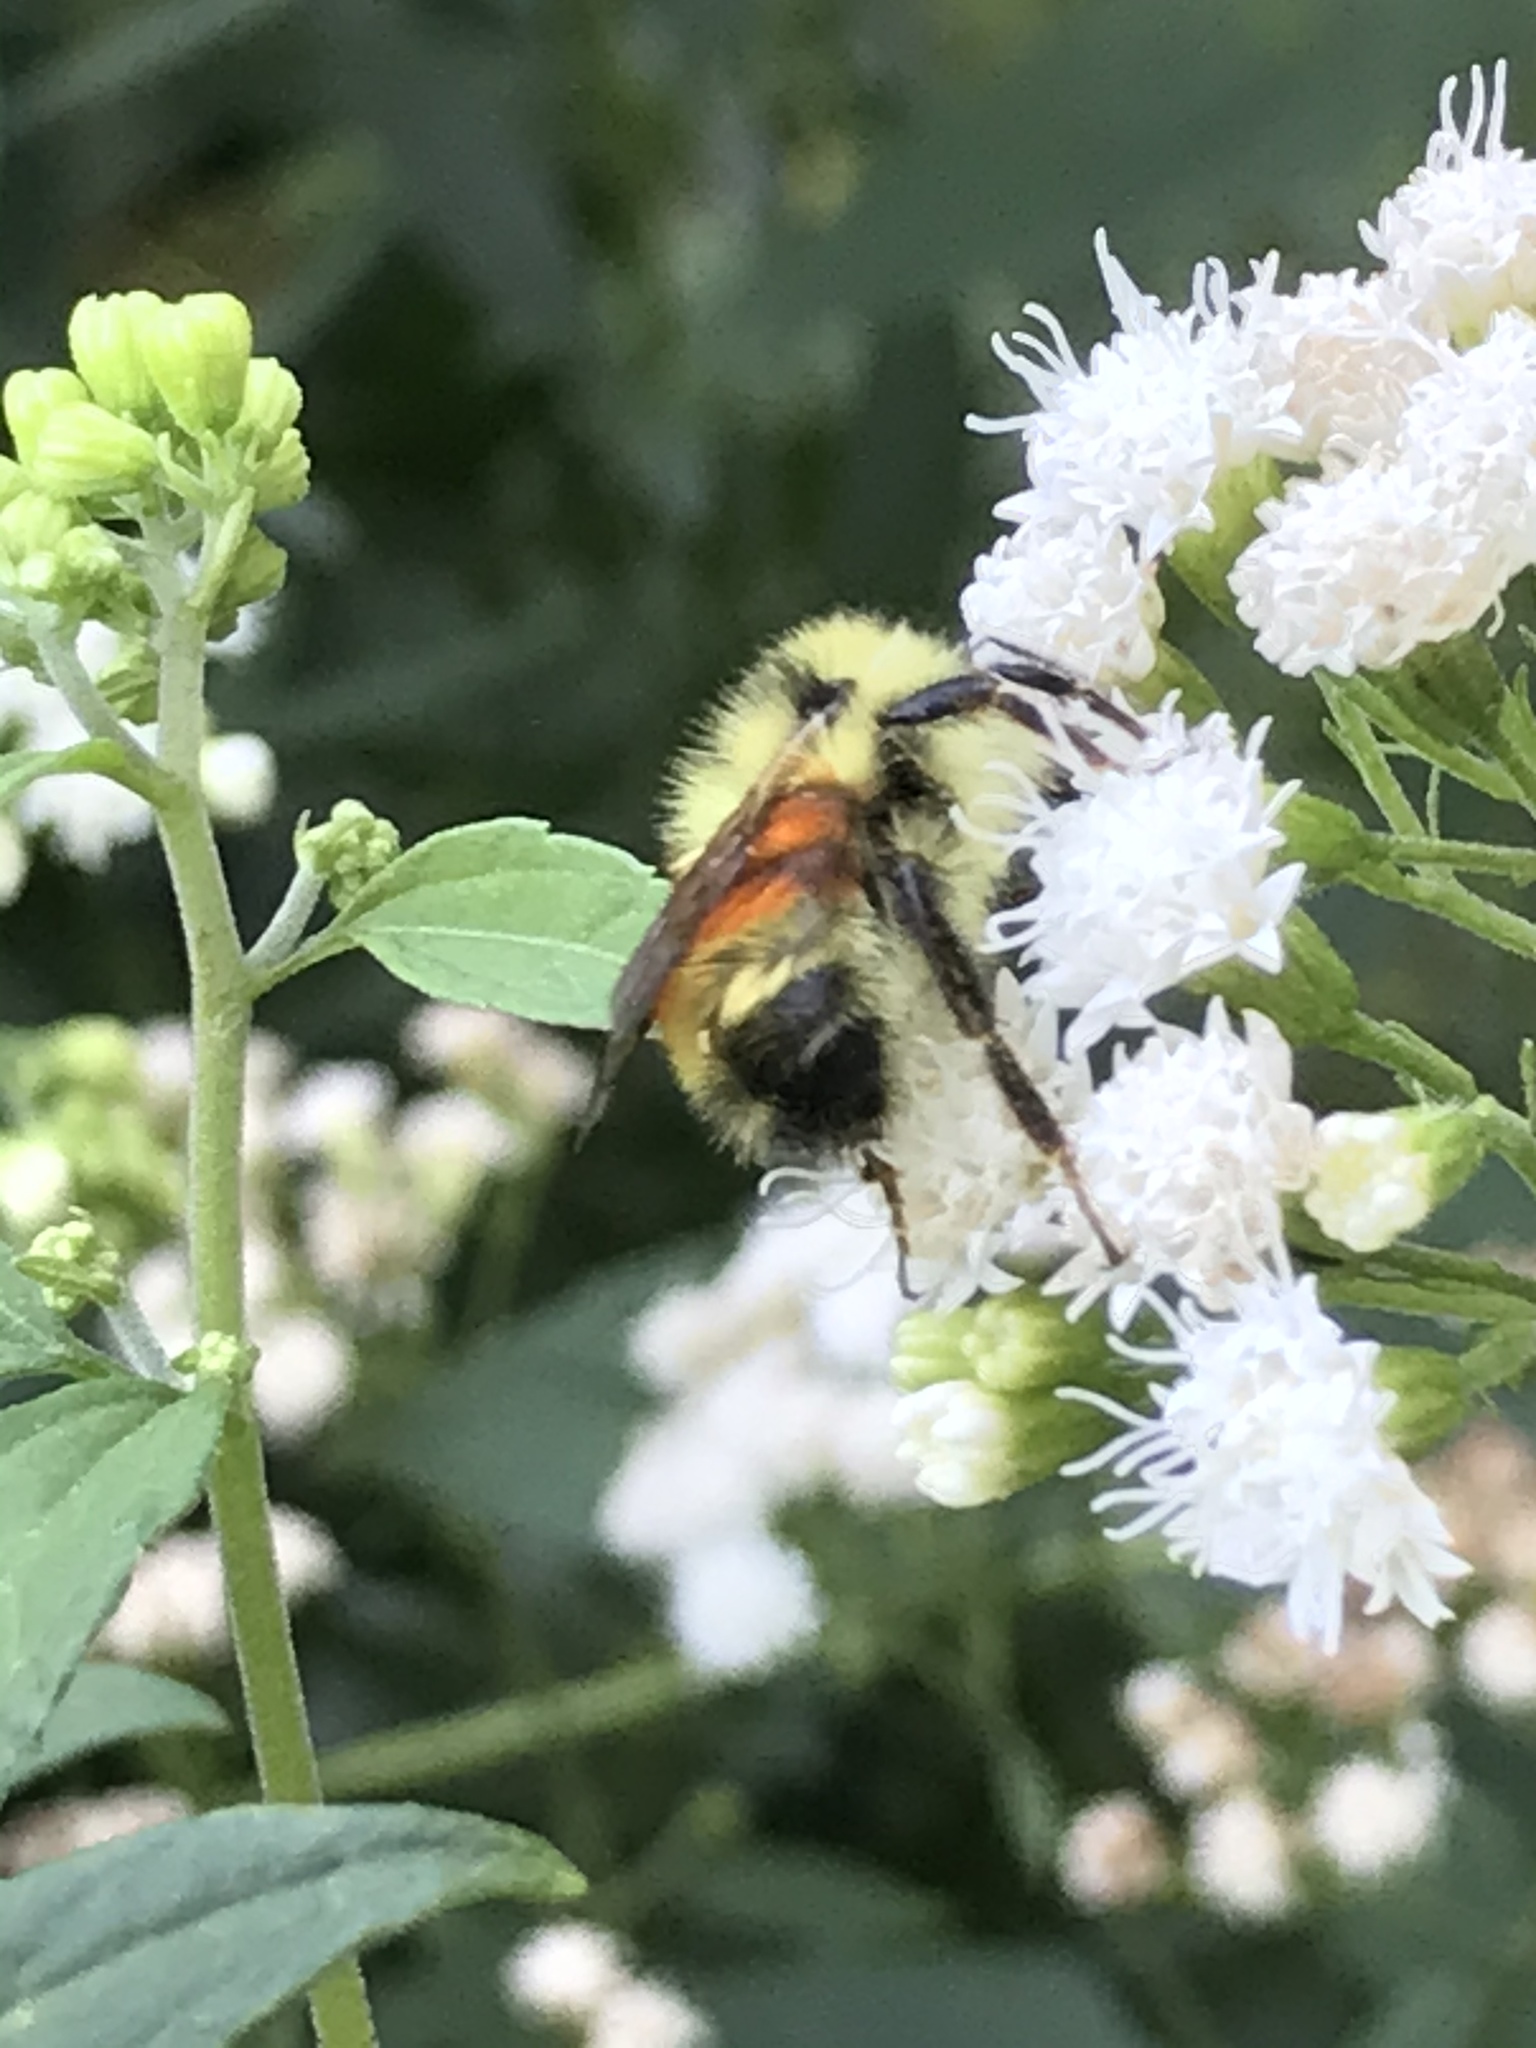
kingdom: Animalia
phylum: Arthropoda
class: Insecta
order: Hymenoptera
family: Apidae
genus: Bombus
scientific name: Bombus ternarius
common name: Tri-colored bumble bee
